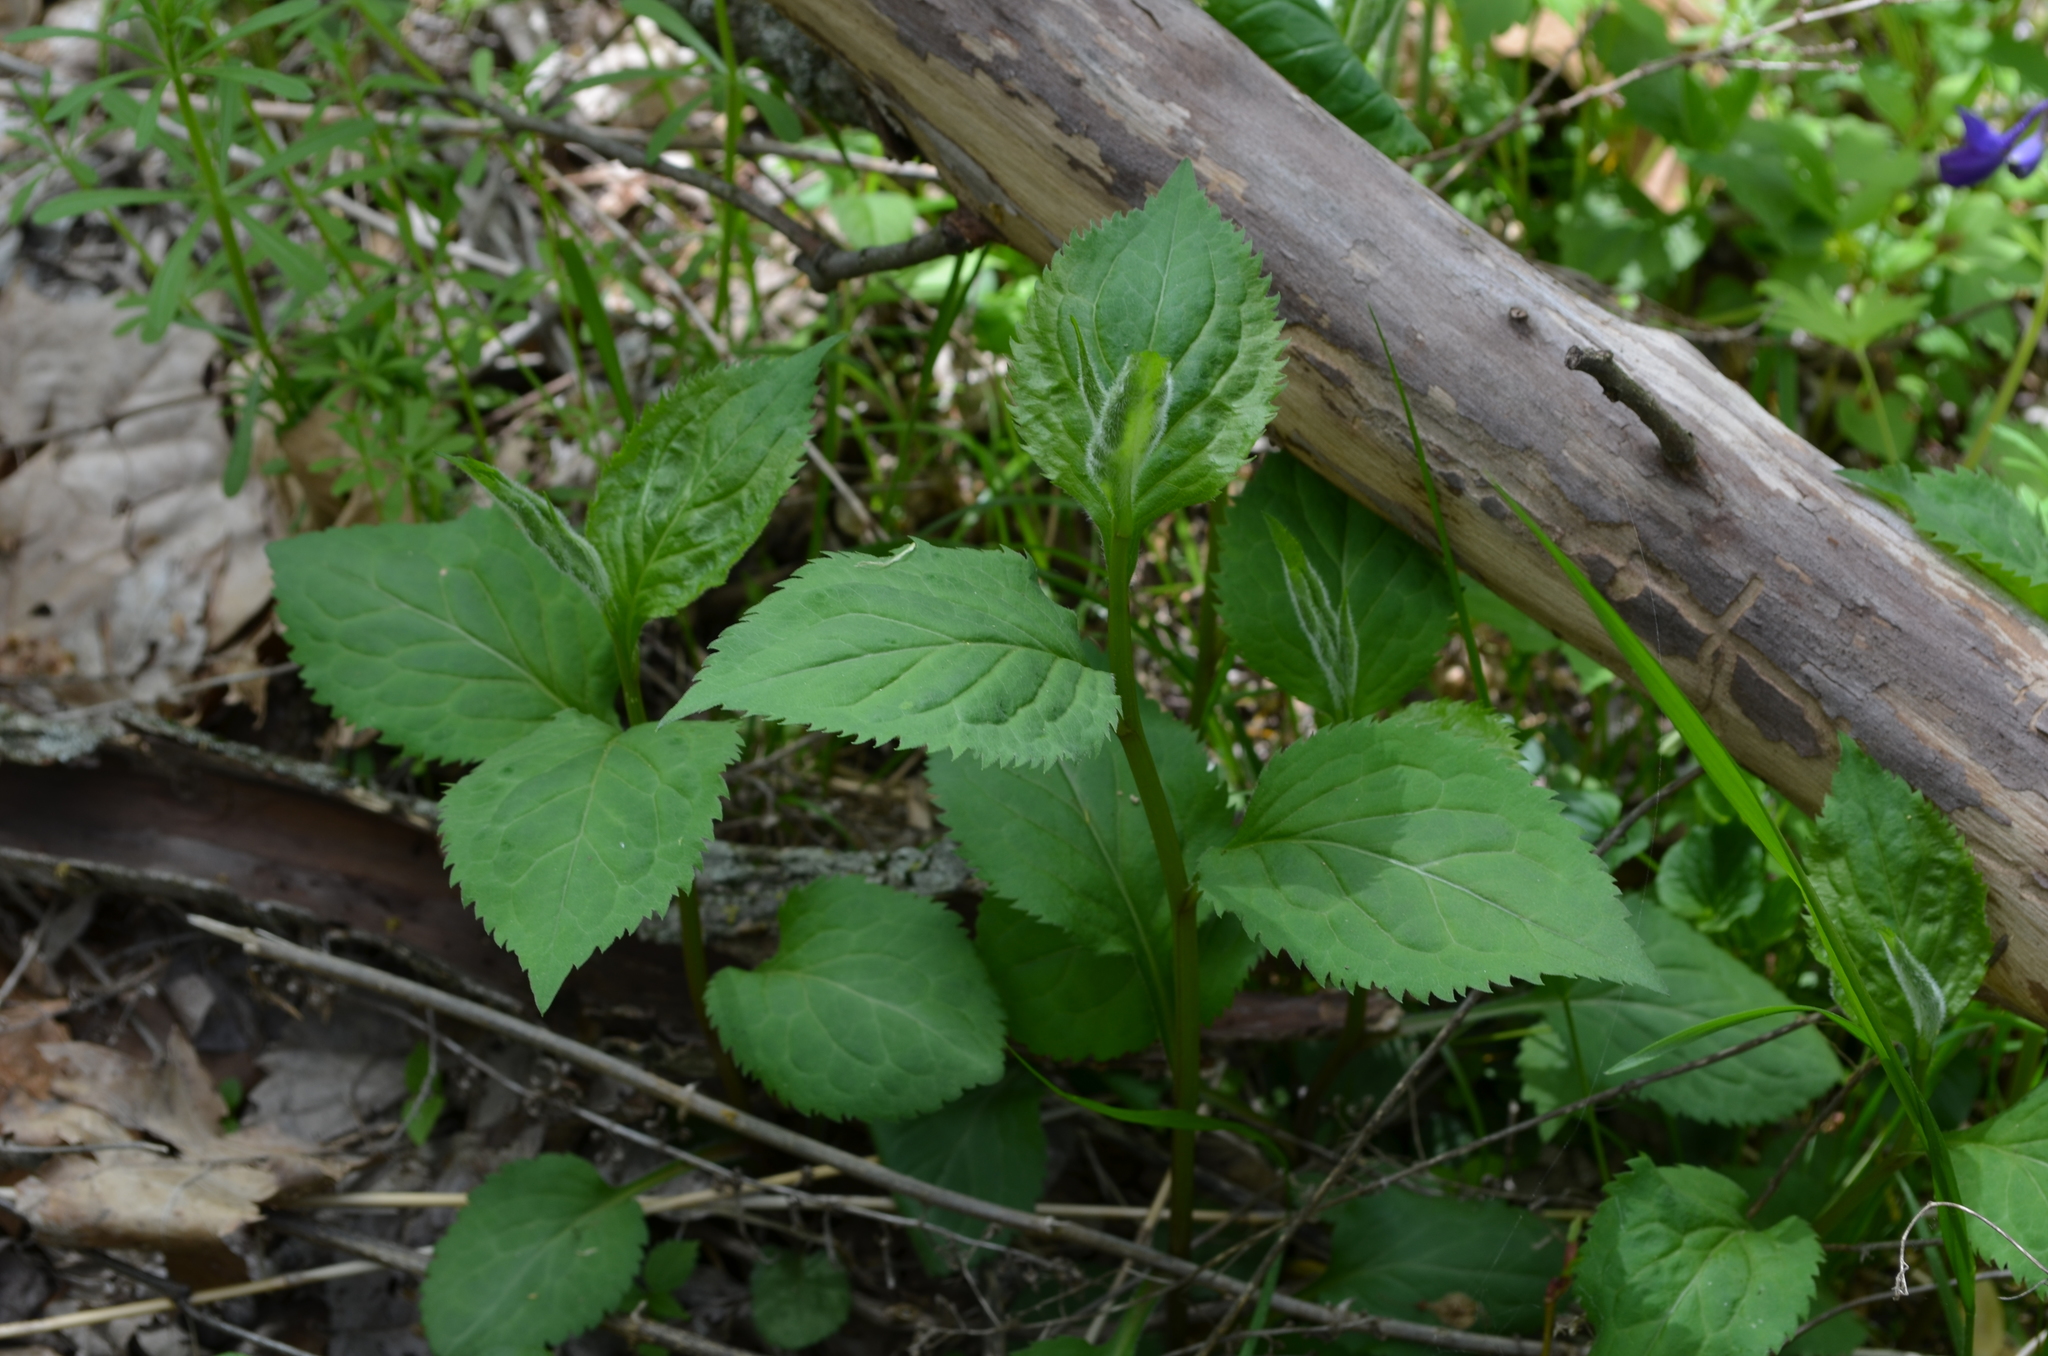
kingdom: Plantae
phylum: Tracheophyta
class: Magnoliopsida
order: Asterales
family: Asteraceae
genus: Solidago
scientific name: Solidago flexicaulis
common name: Zig-zag goldenrod
